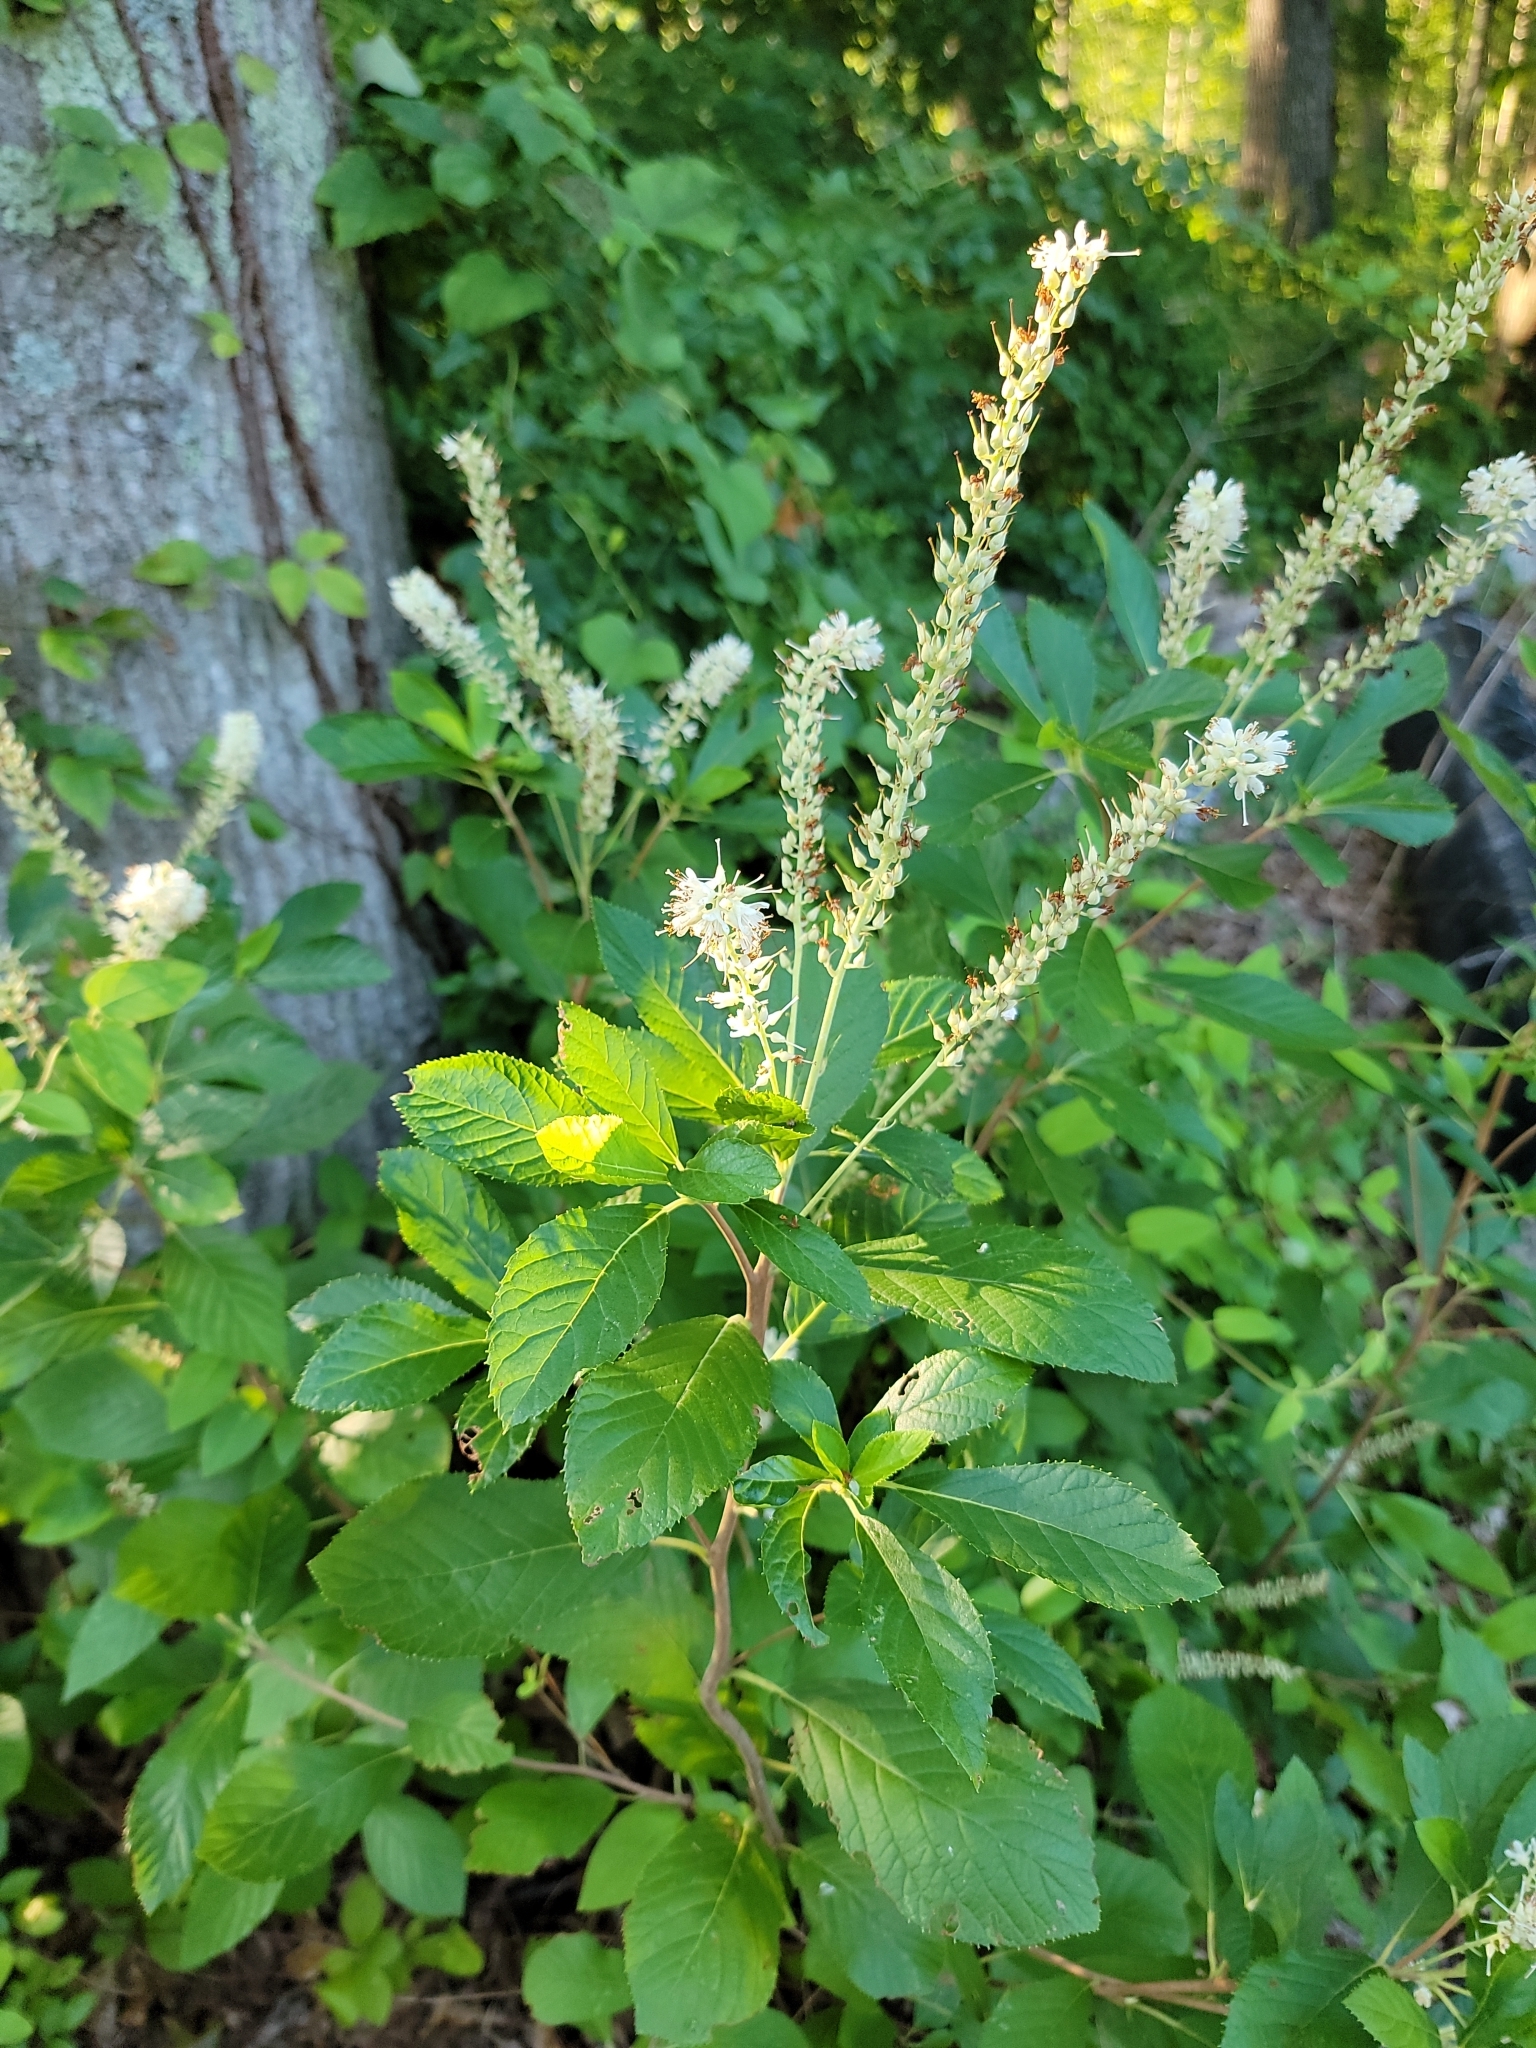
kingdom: Plantae
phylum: Tracheophyta
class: Magnoliopsida
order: Ericales
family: Clethraceae
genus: Clethra
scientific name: Clethra alnifolia
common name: Sweet pepperbush
